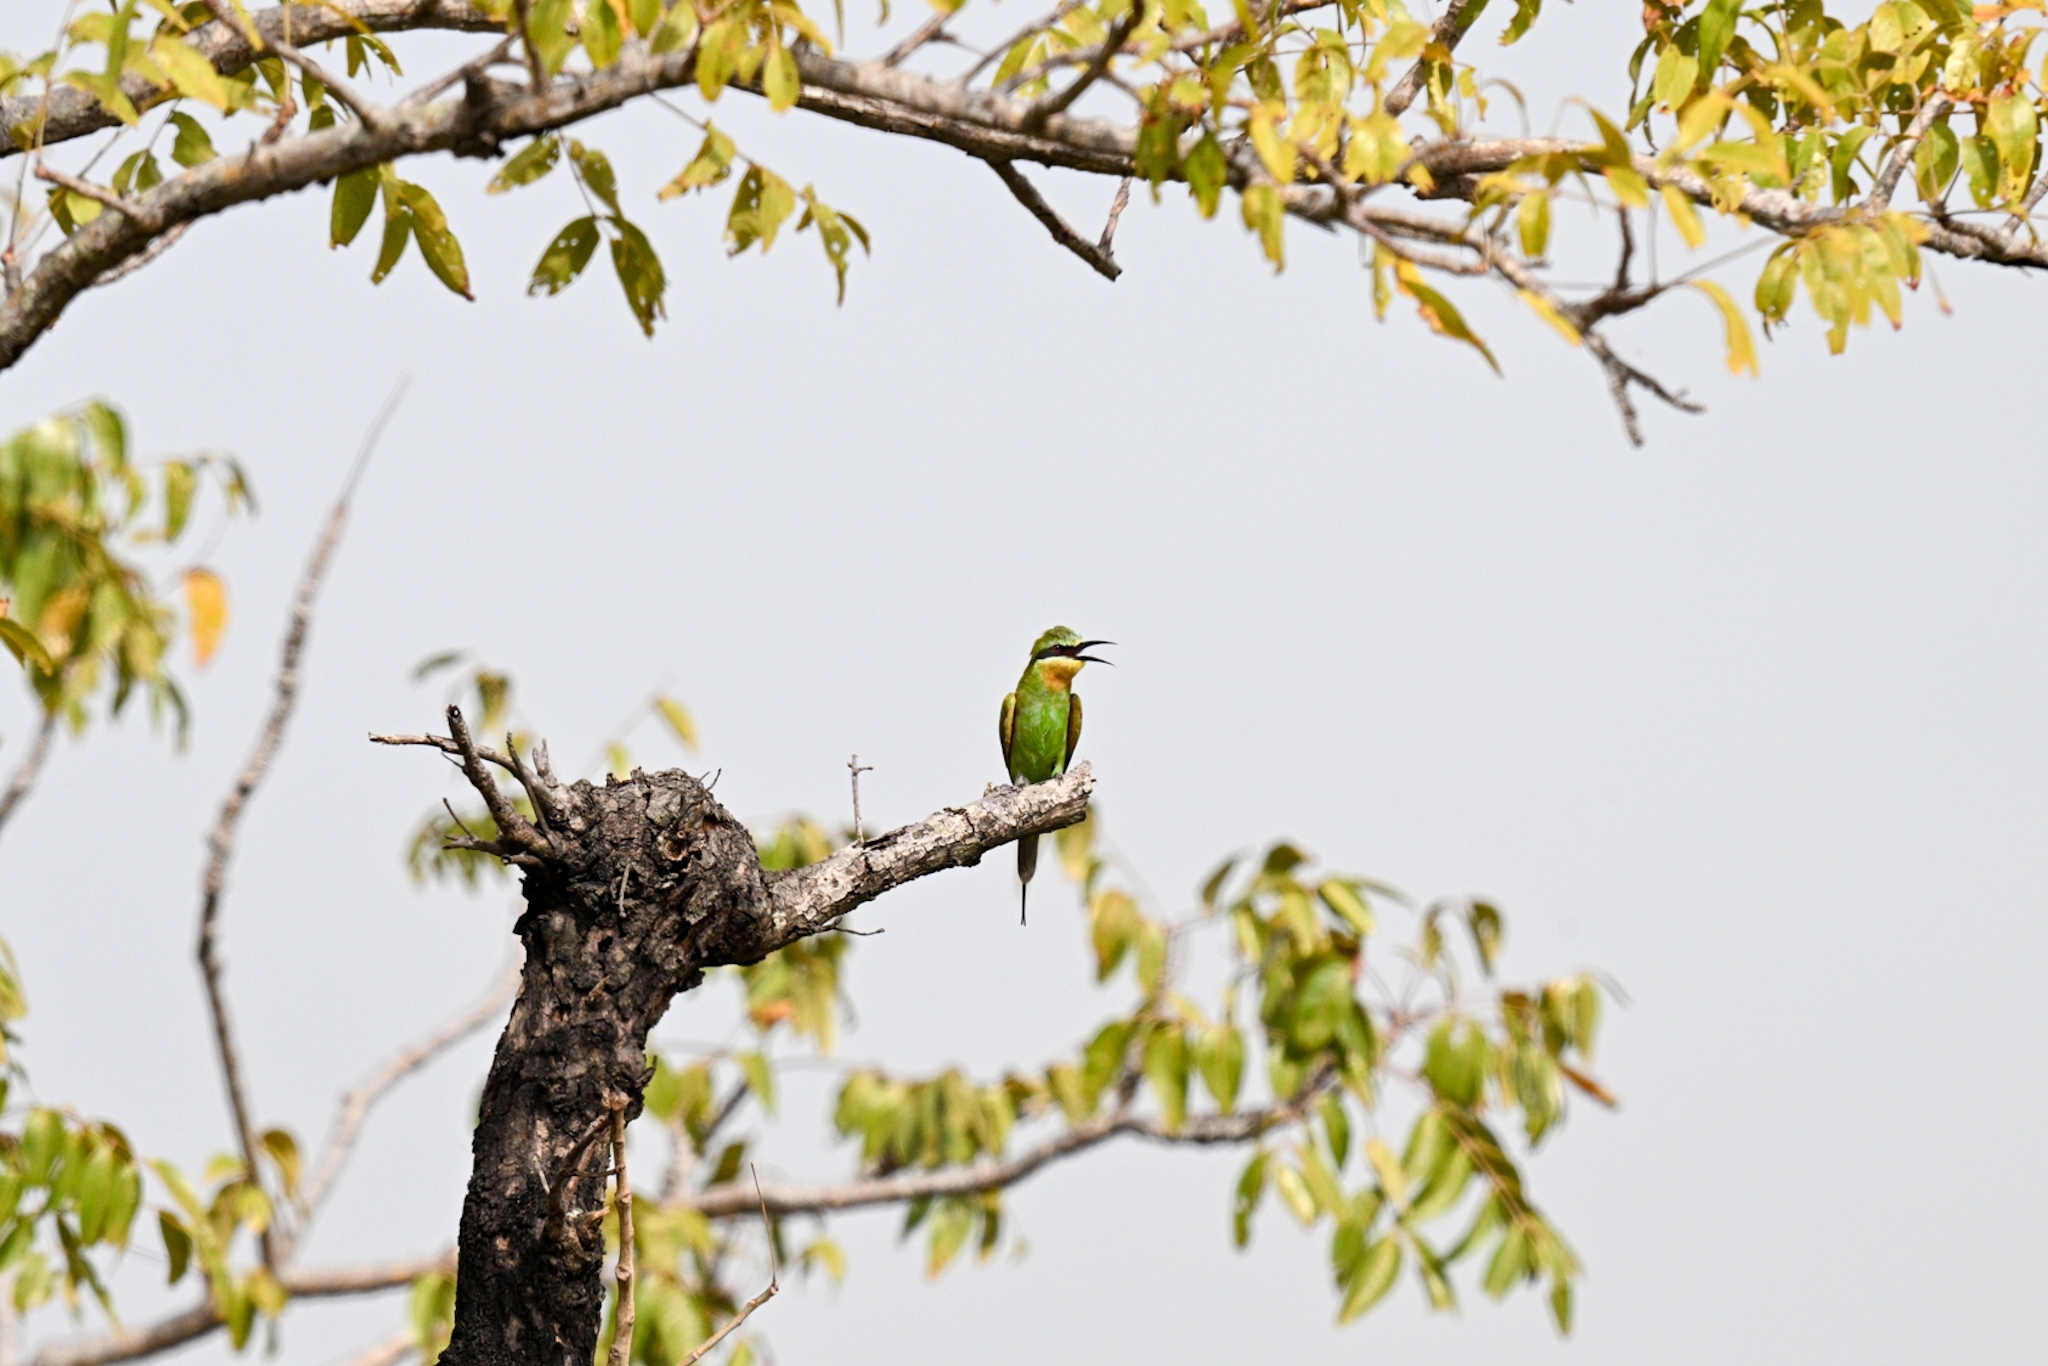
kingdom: Animalia
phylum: Chordata
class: Aves
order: Coraciiformes
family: Meropidae
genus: Merops
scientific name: Merops persicus
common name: Blue-cheeked bee-eater
